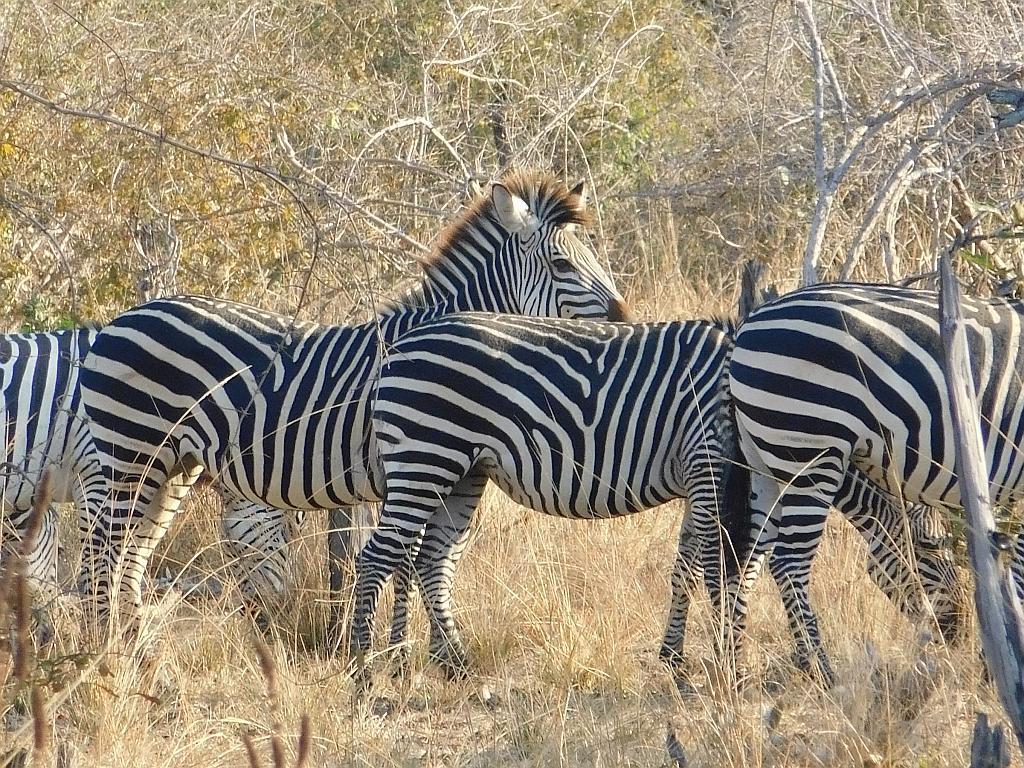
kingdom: Animalia
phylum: Chordata
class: Mammalia
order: Perissodactyla
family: Equidae
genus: Equus
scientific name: Equus quagga
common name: Plains zebra
